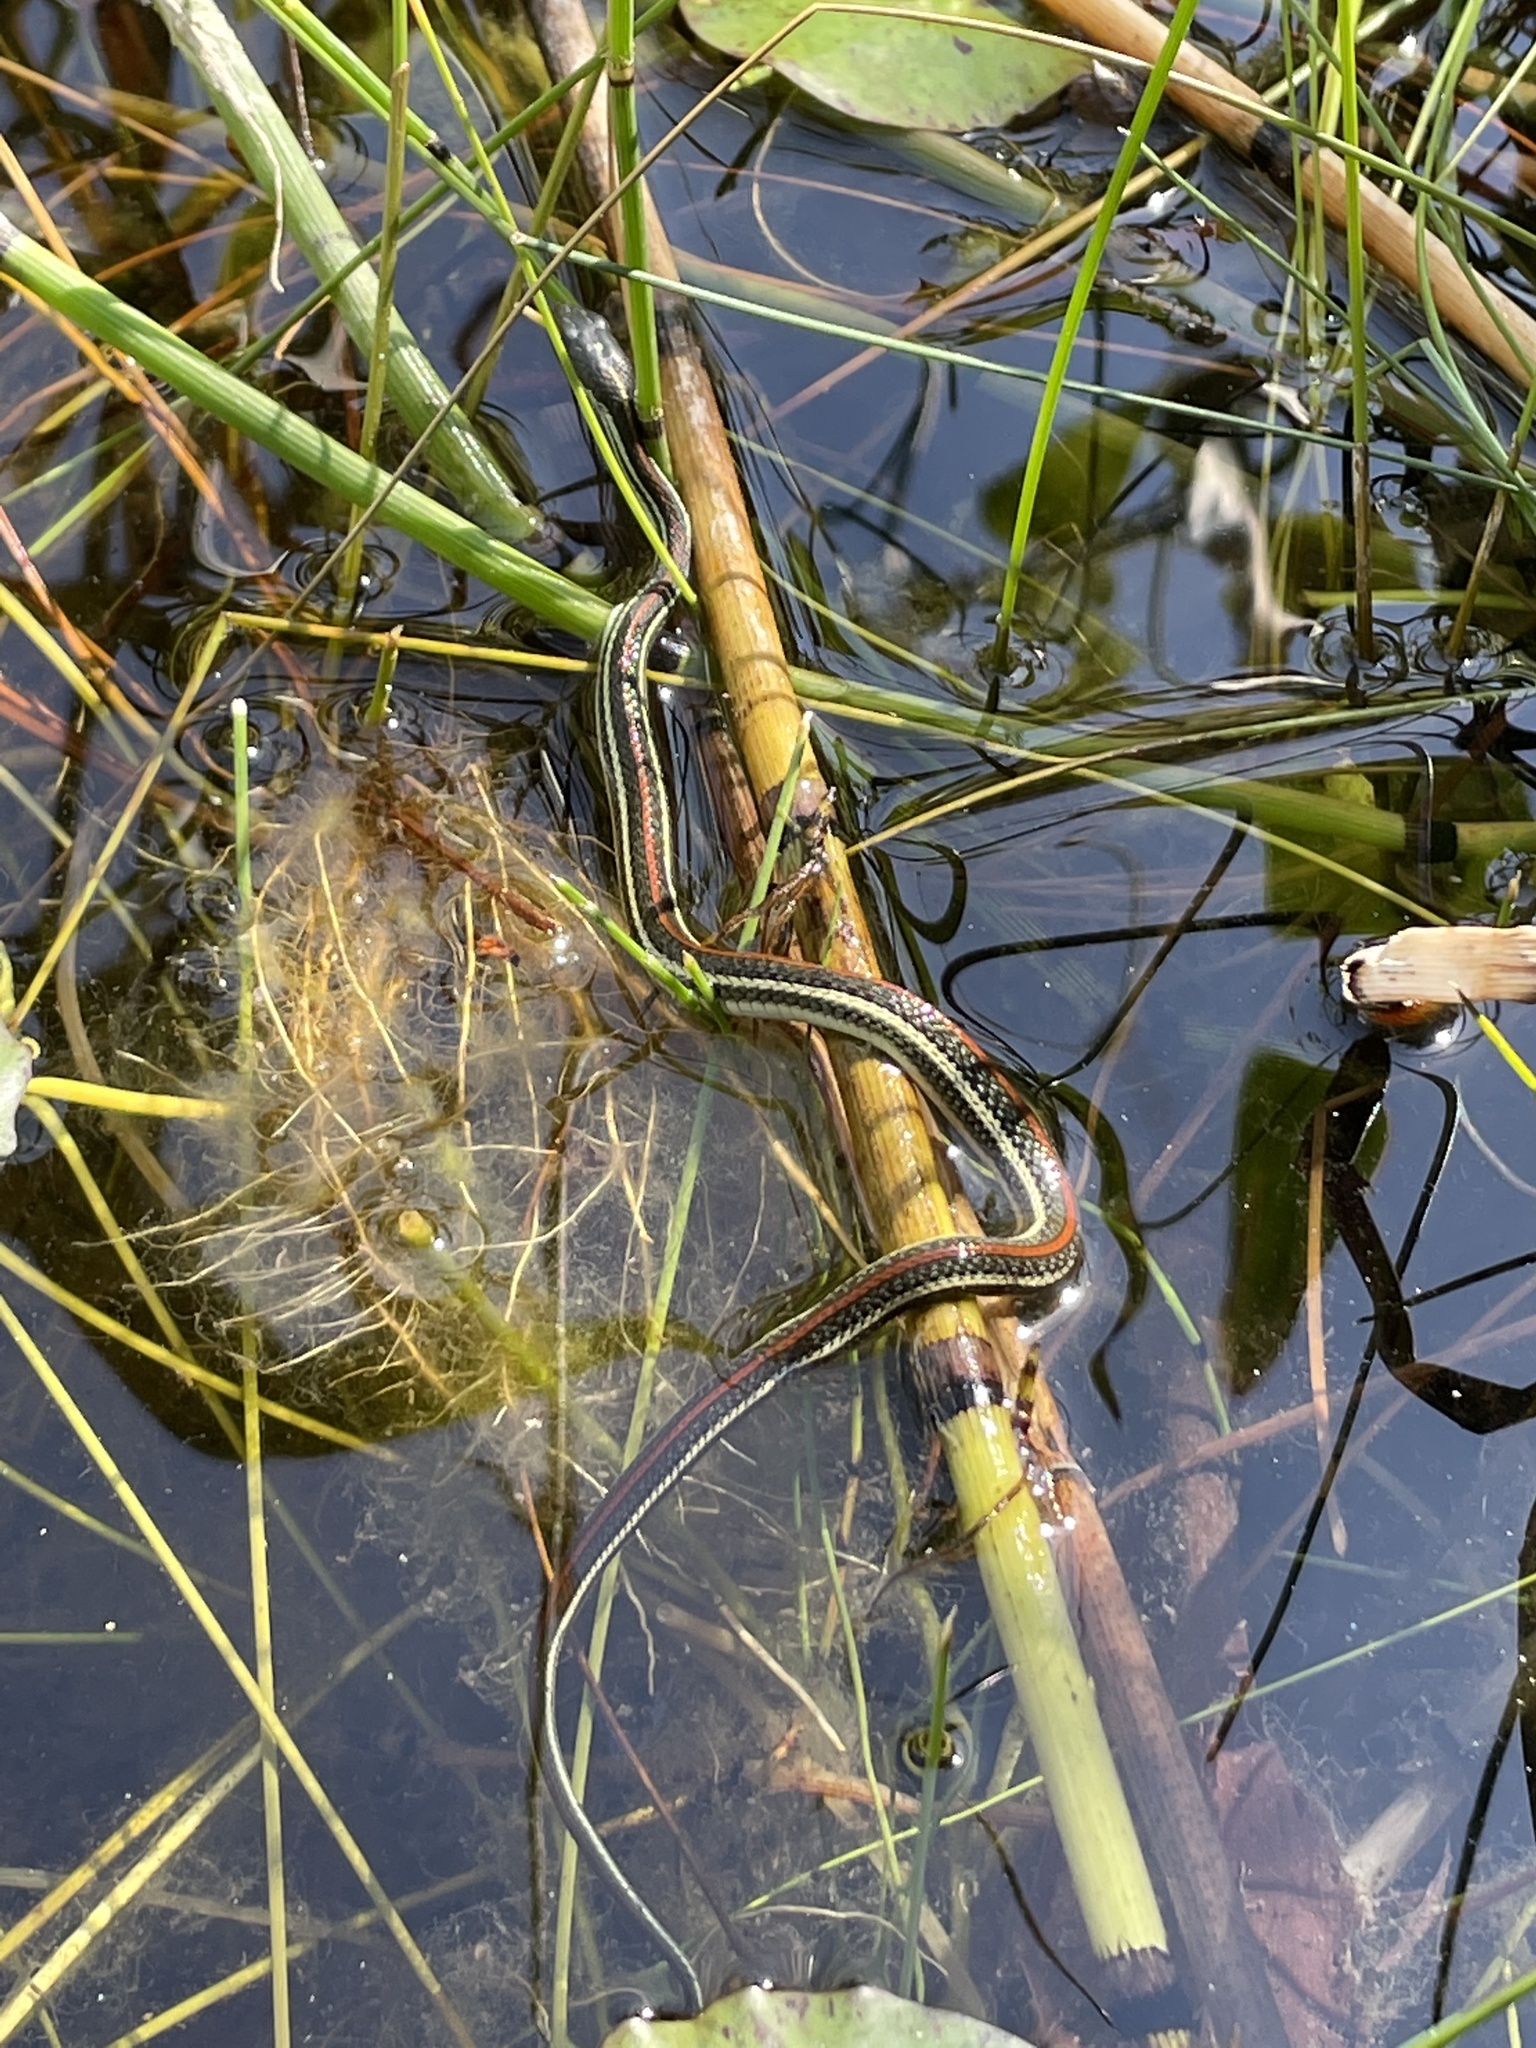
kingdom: Animalia
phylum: Chordata
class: Squamata
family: Colubridae
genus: Thamnophis
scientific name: Thamnophis proximus
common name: Western ribbon snake
